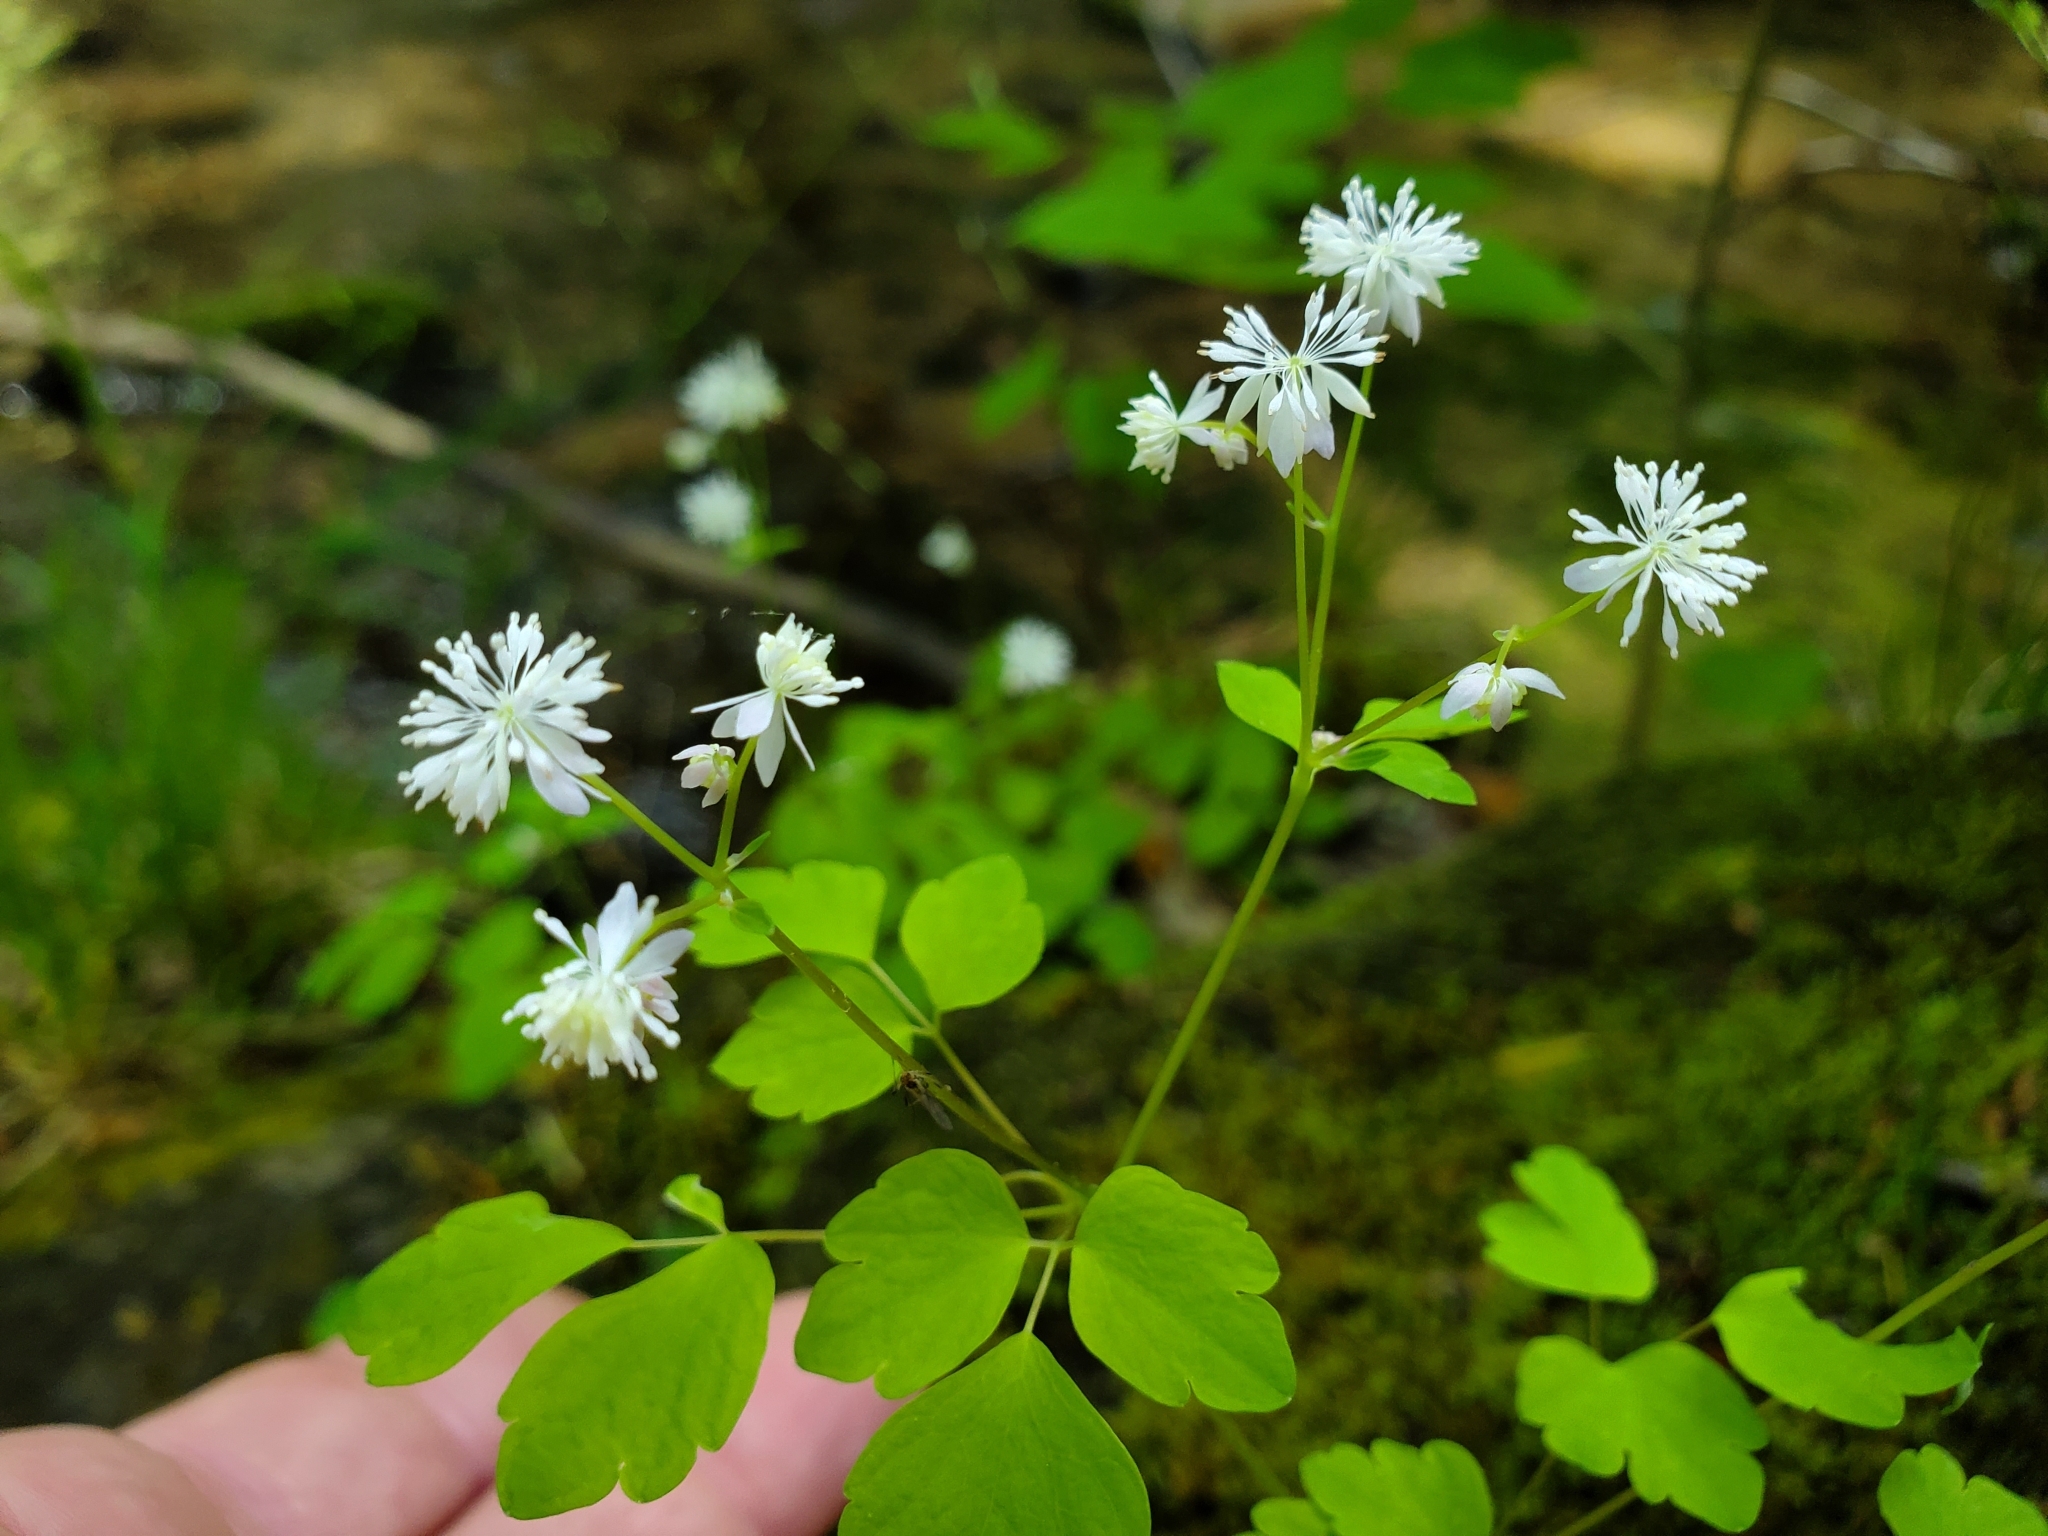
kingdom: Plantae
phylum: Tracheophyta
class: Magnoliopsida
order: Ranunculales
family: Ranunculaceae
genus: Thalictrum
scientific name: Thalictrum clavatum
